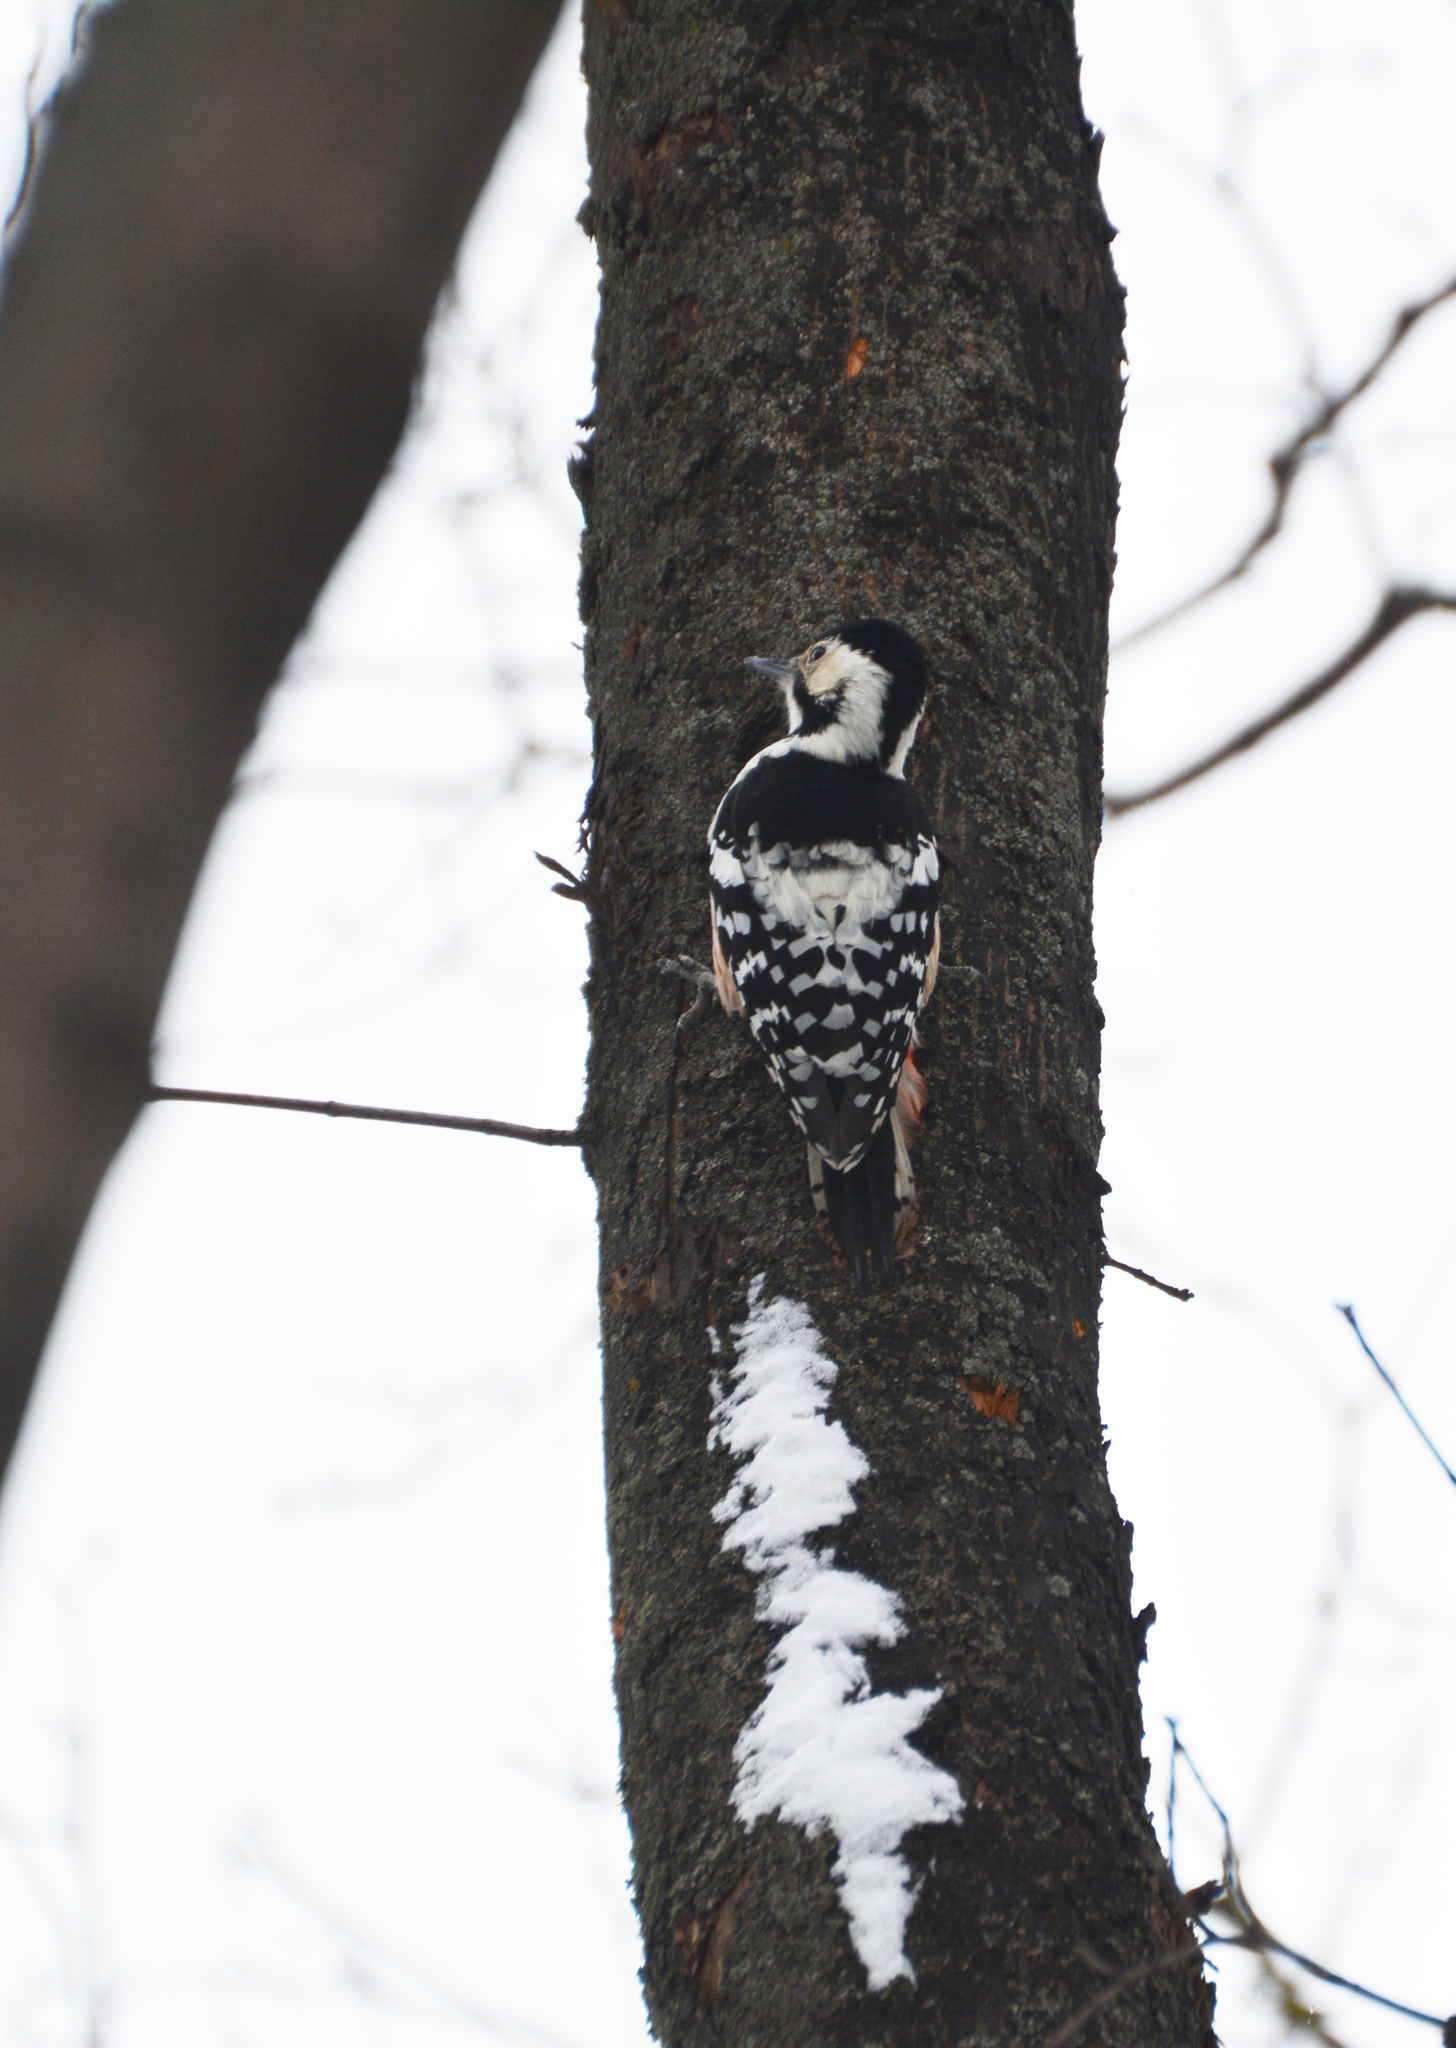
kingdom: Animalia
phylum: Chordata
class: Aves
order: Piciformes
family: Picidae
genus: Dendrocopos
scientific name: Dendrocopos leucotos
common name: White-backed woodpecker
